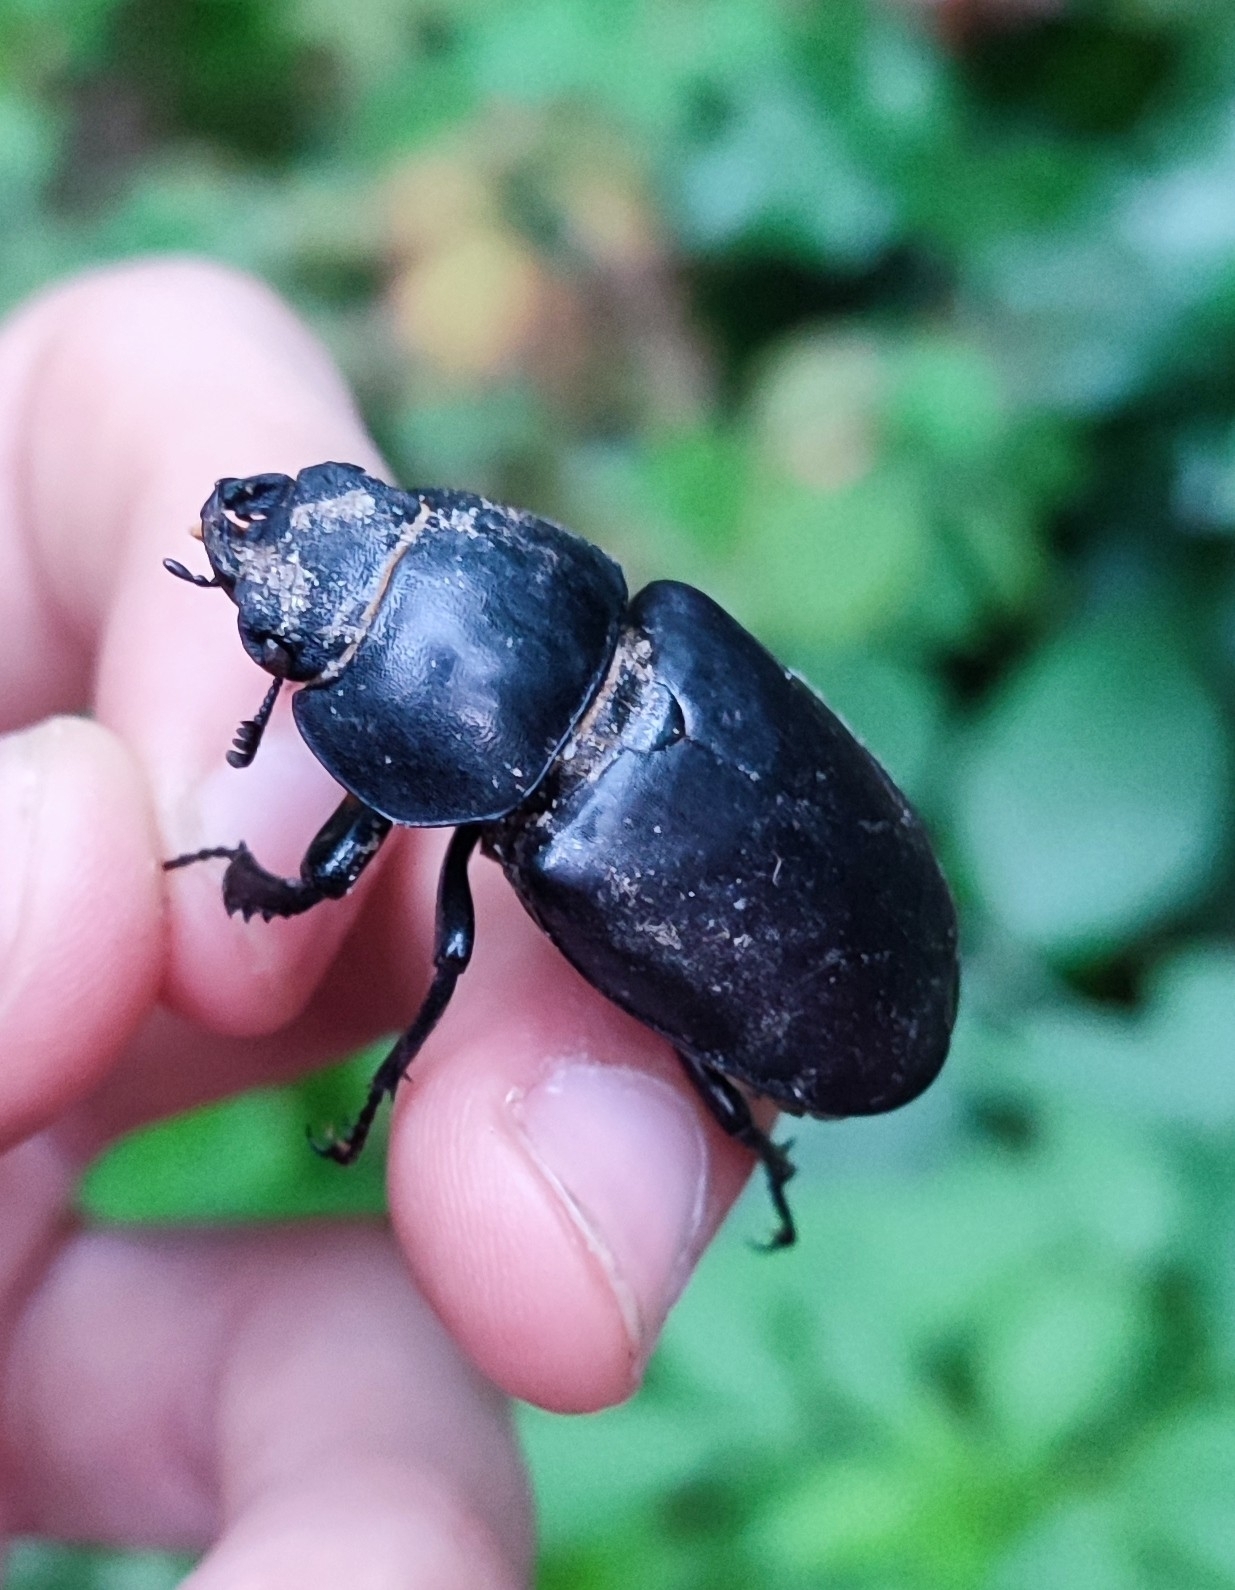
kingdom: Animalia
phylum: Arthropoda
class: Insecta
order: Coleoptera
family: Lucanidae
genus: Lucanus
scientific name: Lucanus cervus
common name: Stag beetle
